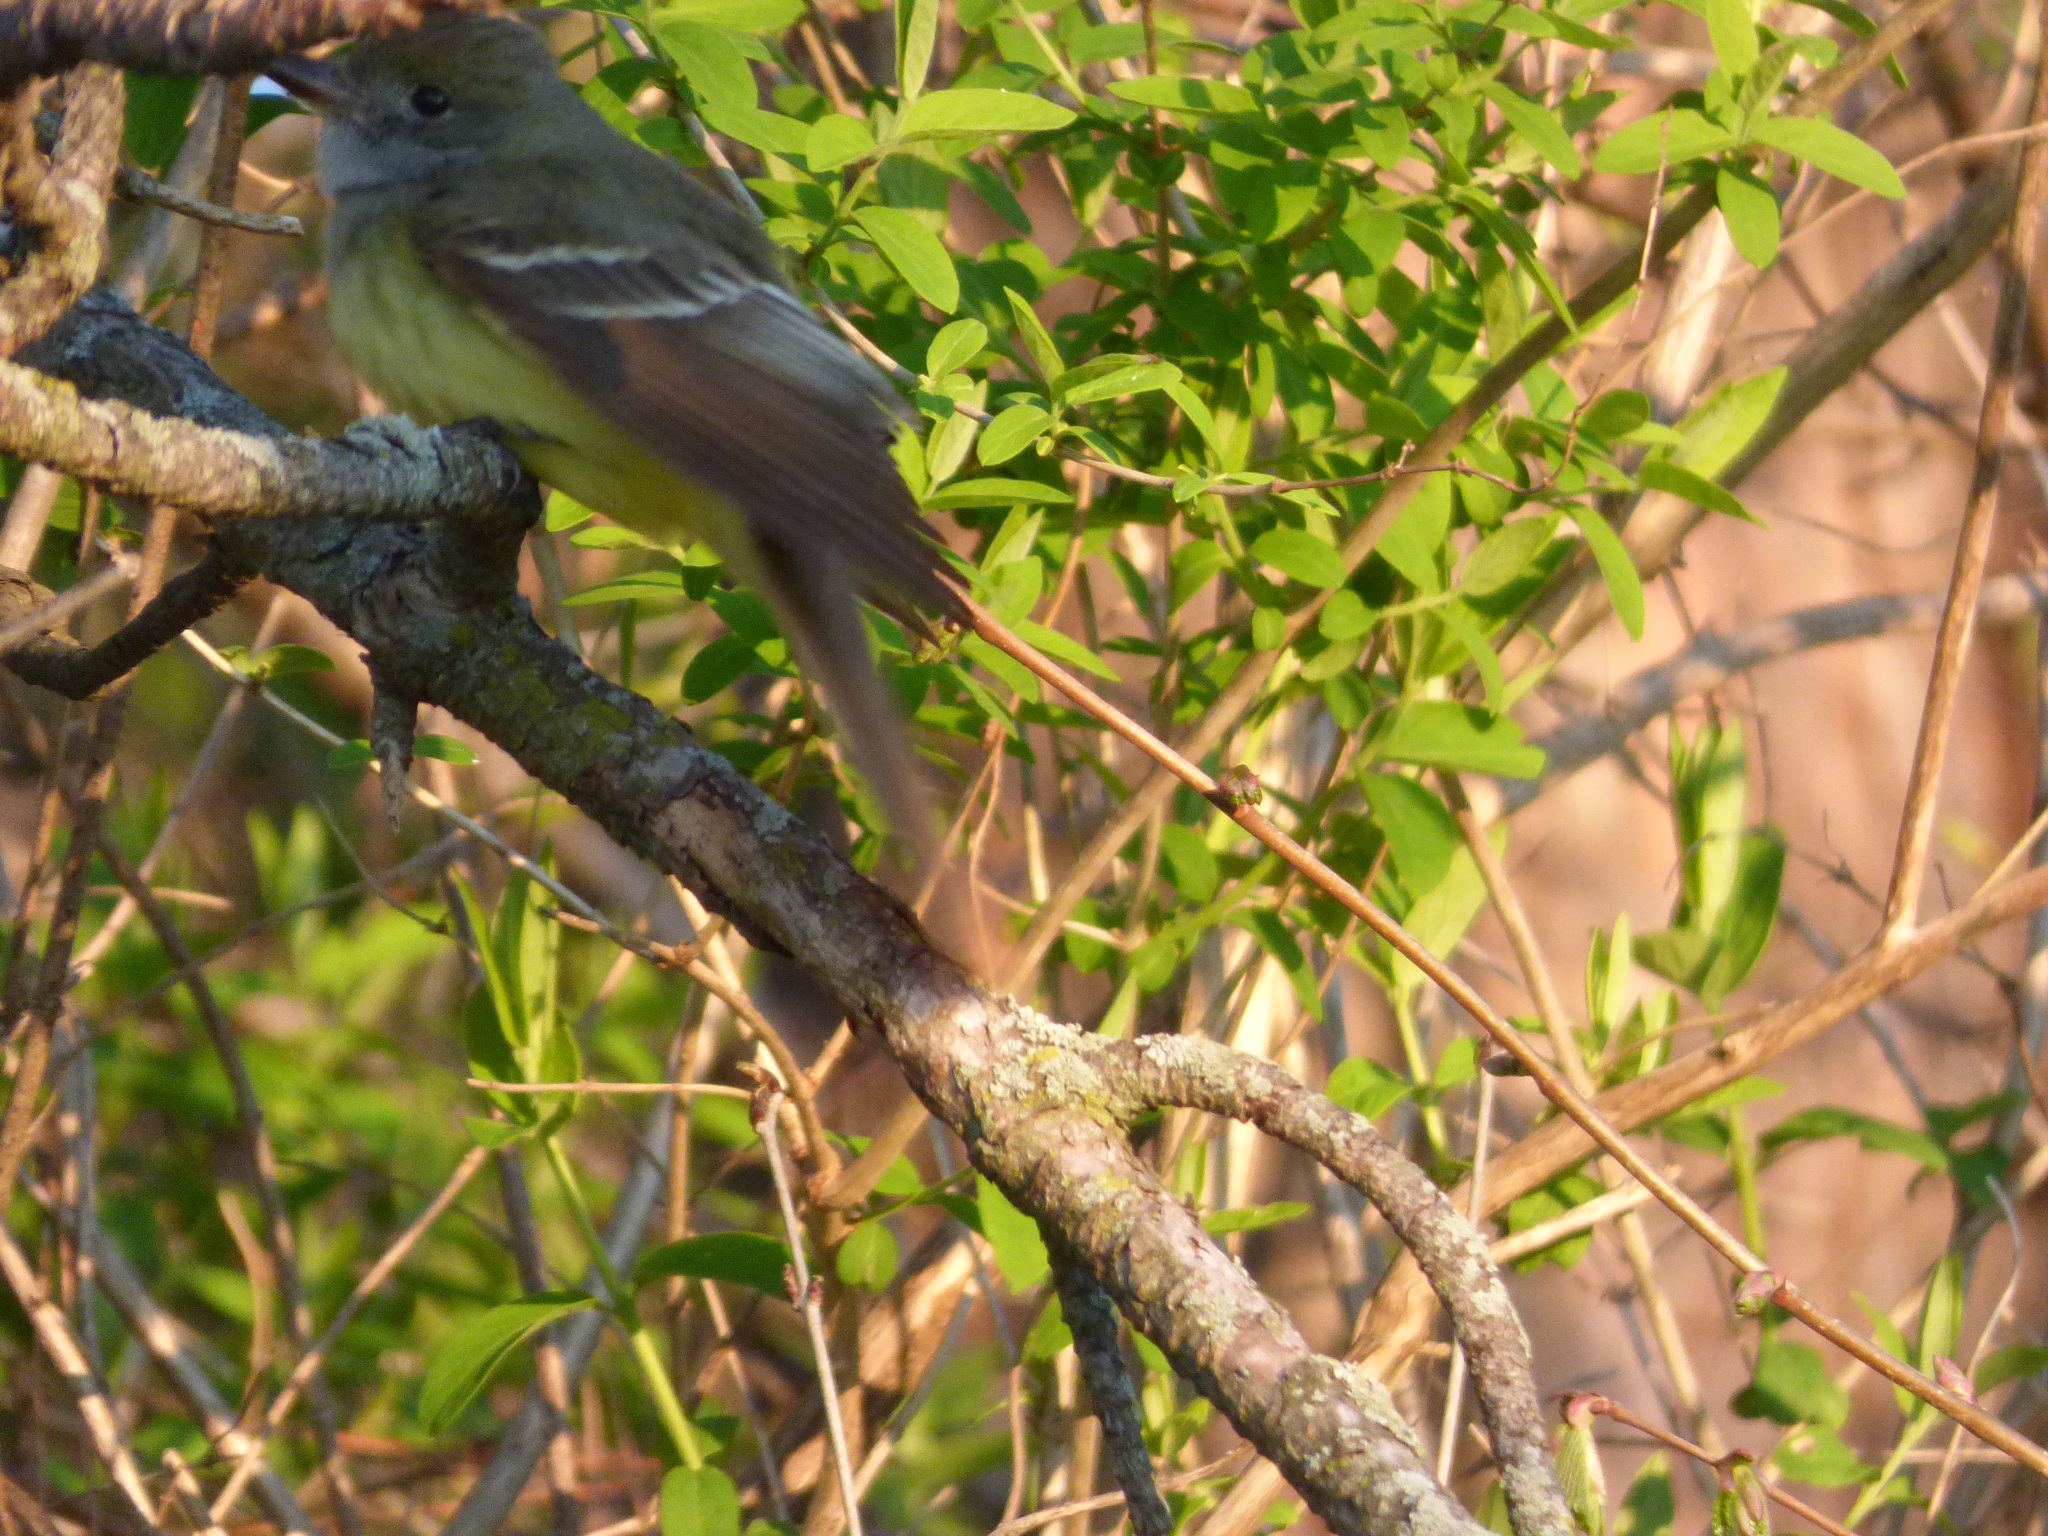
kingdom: Animalia
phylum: Chordata
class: Aves
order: Passeriformes
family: Tyrannidae
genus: Myiarchus
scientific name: Myiarchus crinitus
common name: Great crested flycatcher
